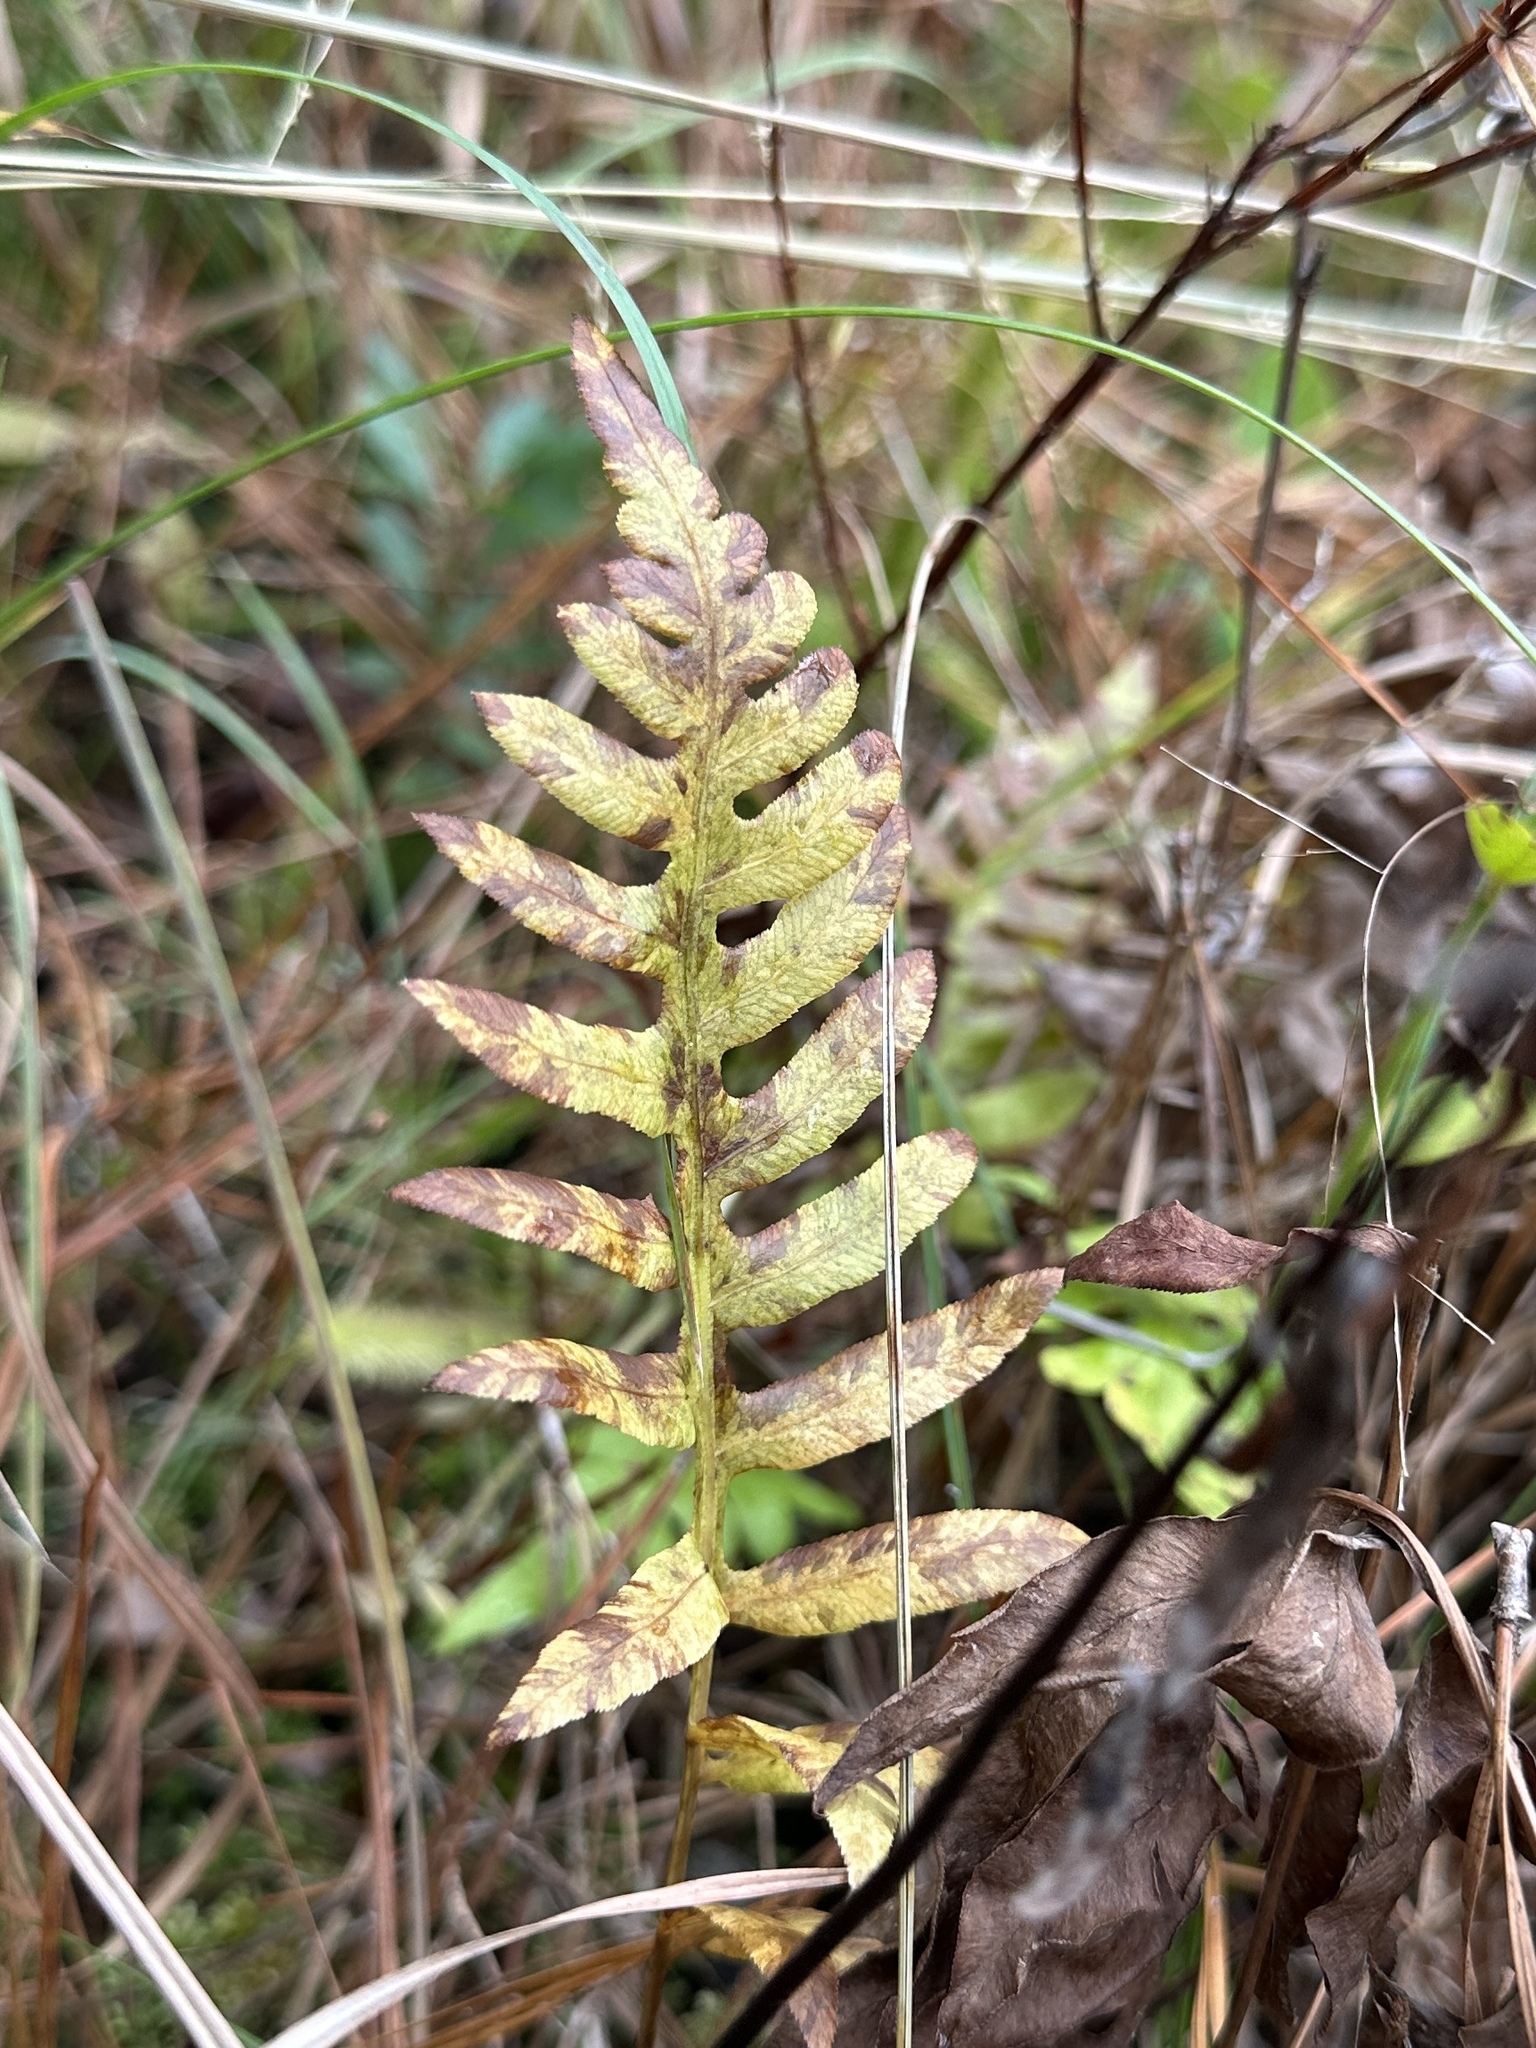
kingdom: Plantae
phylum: Tracheophyta
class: Polypodiopsida
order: Polypodiales
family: Blechnaceae
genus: Lorinseria
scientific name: Lorinseria areolata
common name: Dwarf chain fern
